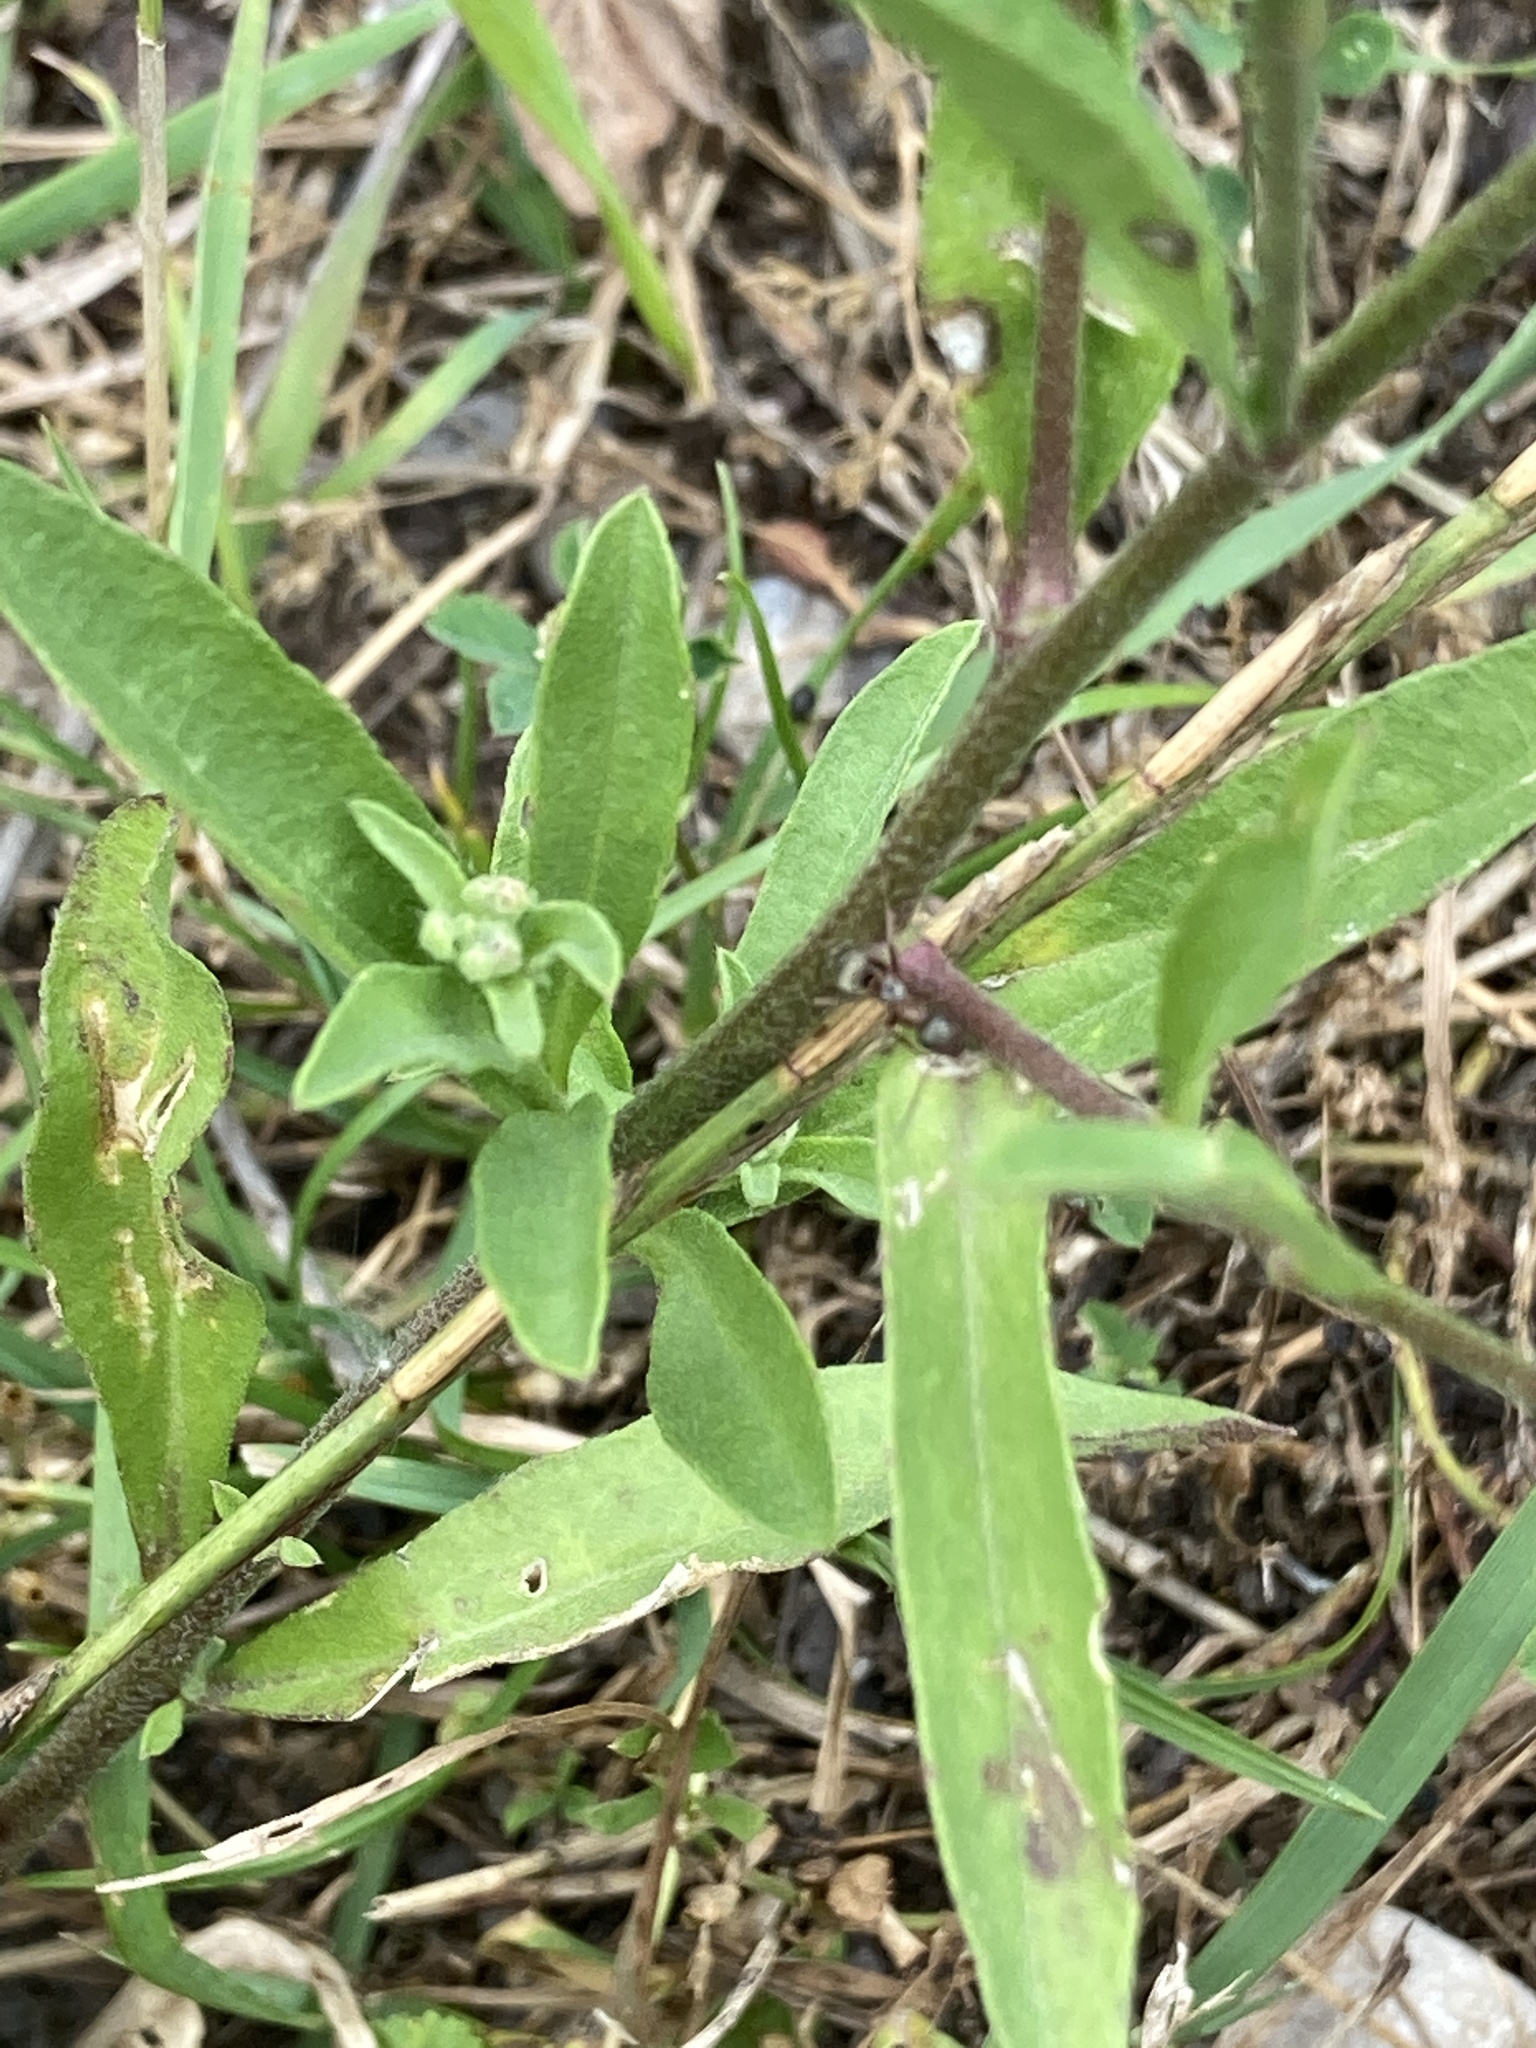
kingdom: Plantae
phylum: Tracheophyta
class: Magnoliopsida
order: Brassicales
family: Brassicaceae
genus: Berteroa
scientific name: Berteroa incana
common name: Hoary alison
